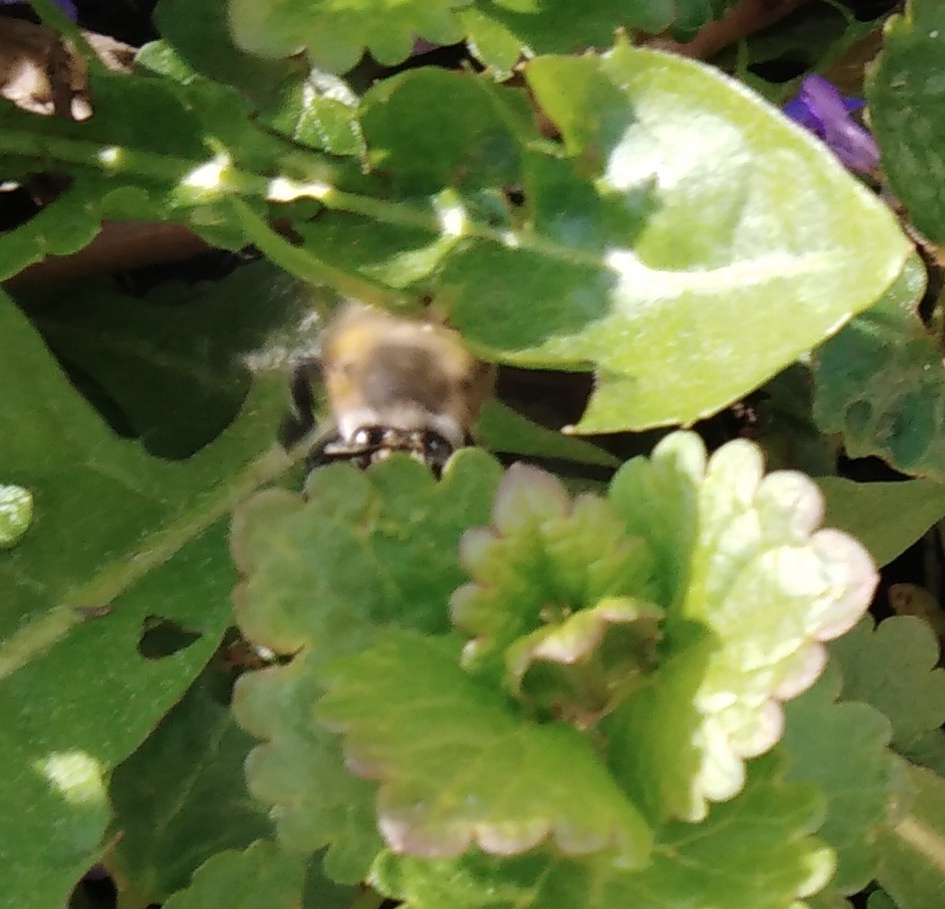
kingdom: Animalia
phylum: Arthropoda
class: Insecta
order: Hymenoptera
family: Apidae
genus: Anthophora
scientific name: Anthophora plumipes
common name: Hairy-footed flower bee
